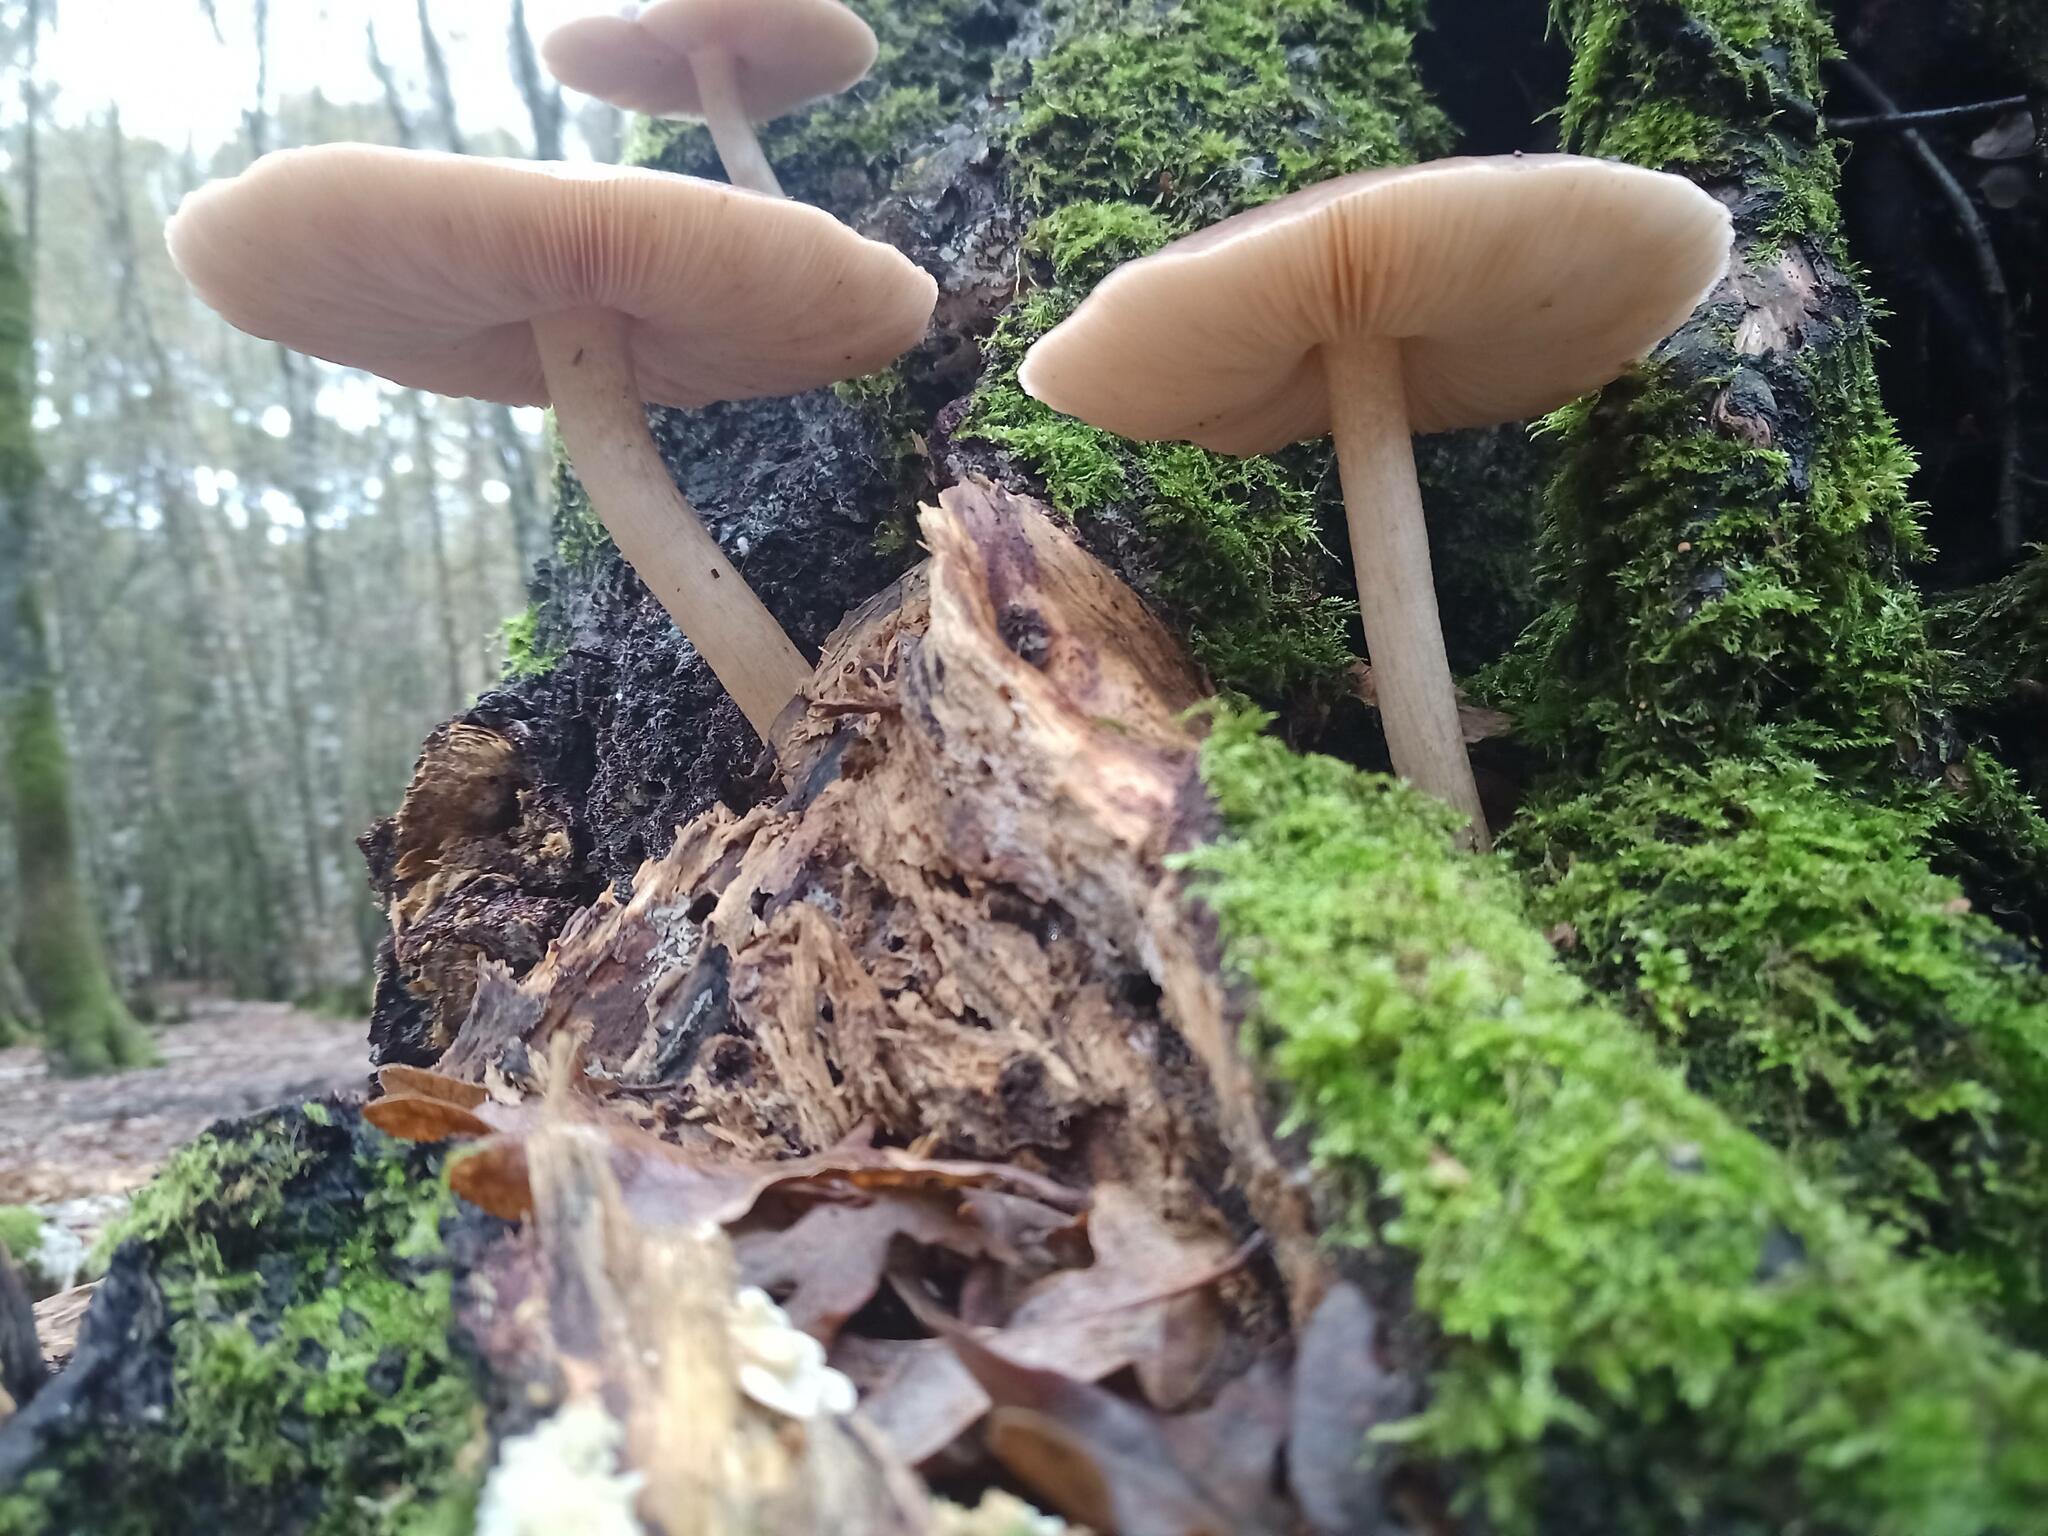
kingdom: Fungi
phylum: Basidiomycota
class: Agaricomycetes
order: Agaricales
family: Pluteaceae
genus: Pluteus
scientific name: Pluteus cervinus
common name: Deer shield
